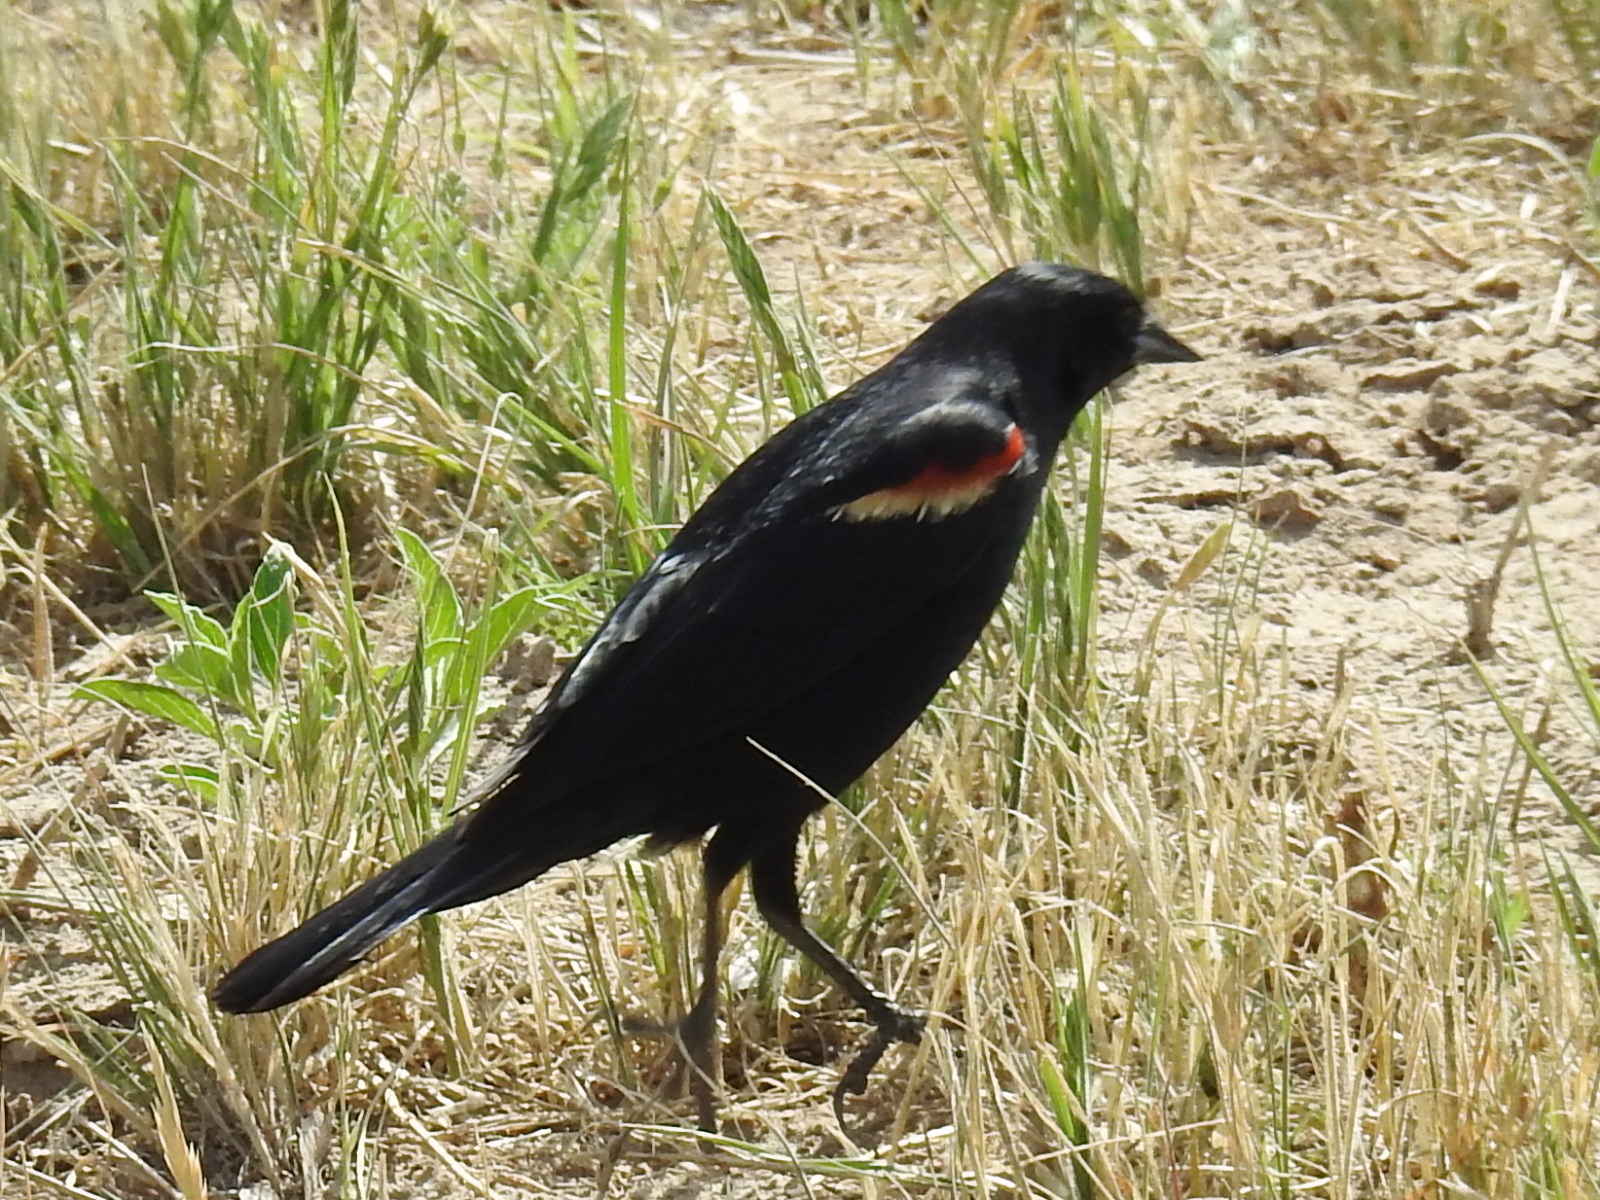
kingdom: Animalia
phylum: Chordata
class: Aves
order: Passeriformes
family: Icteridae
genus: Agelaius
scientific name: Agelaius phoeniceus
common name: Red-winged blackbird
